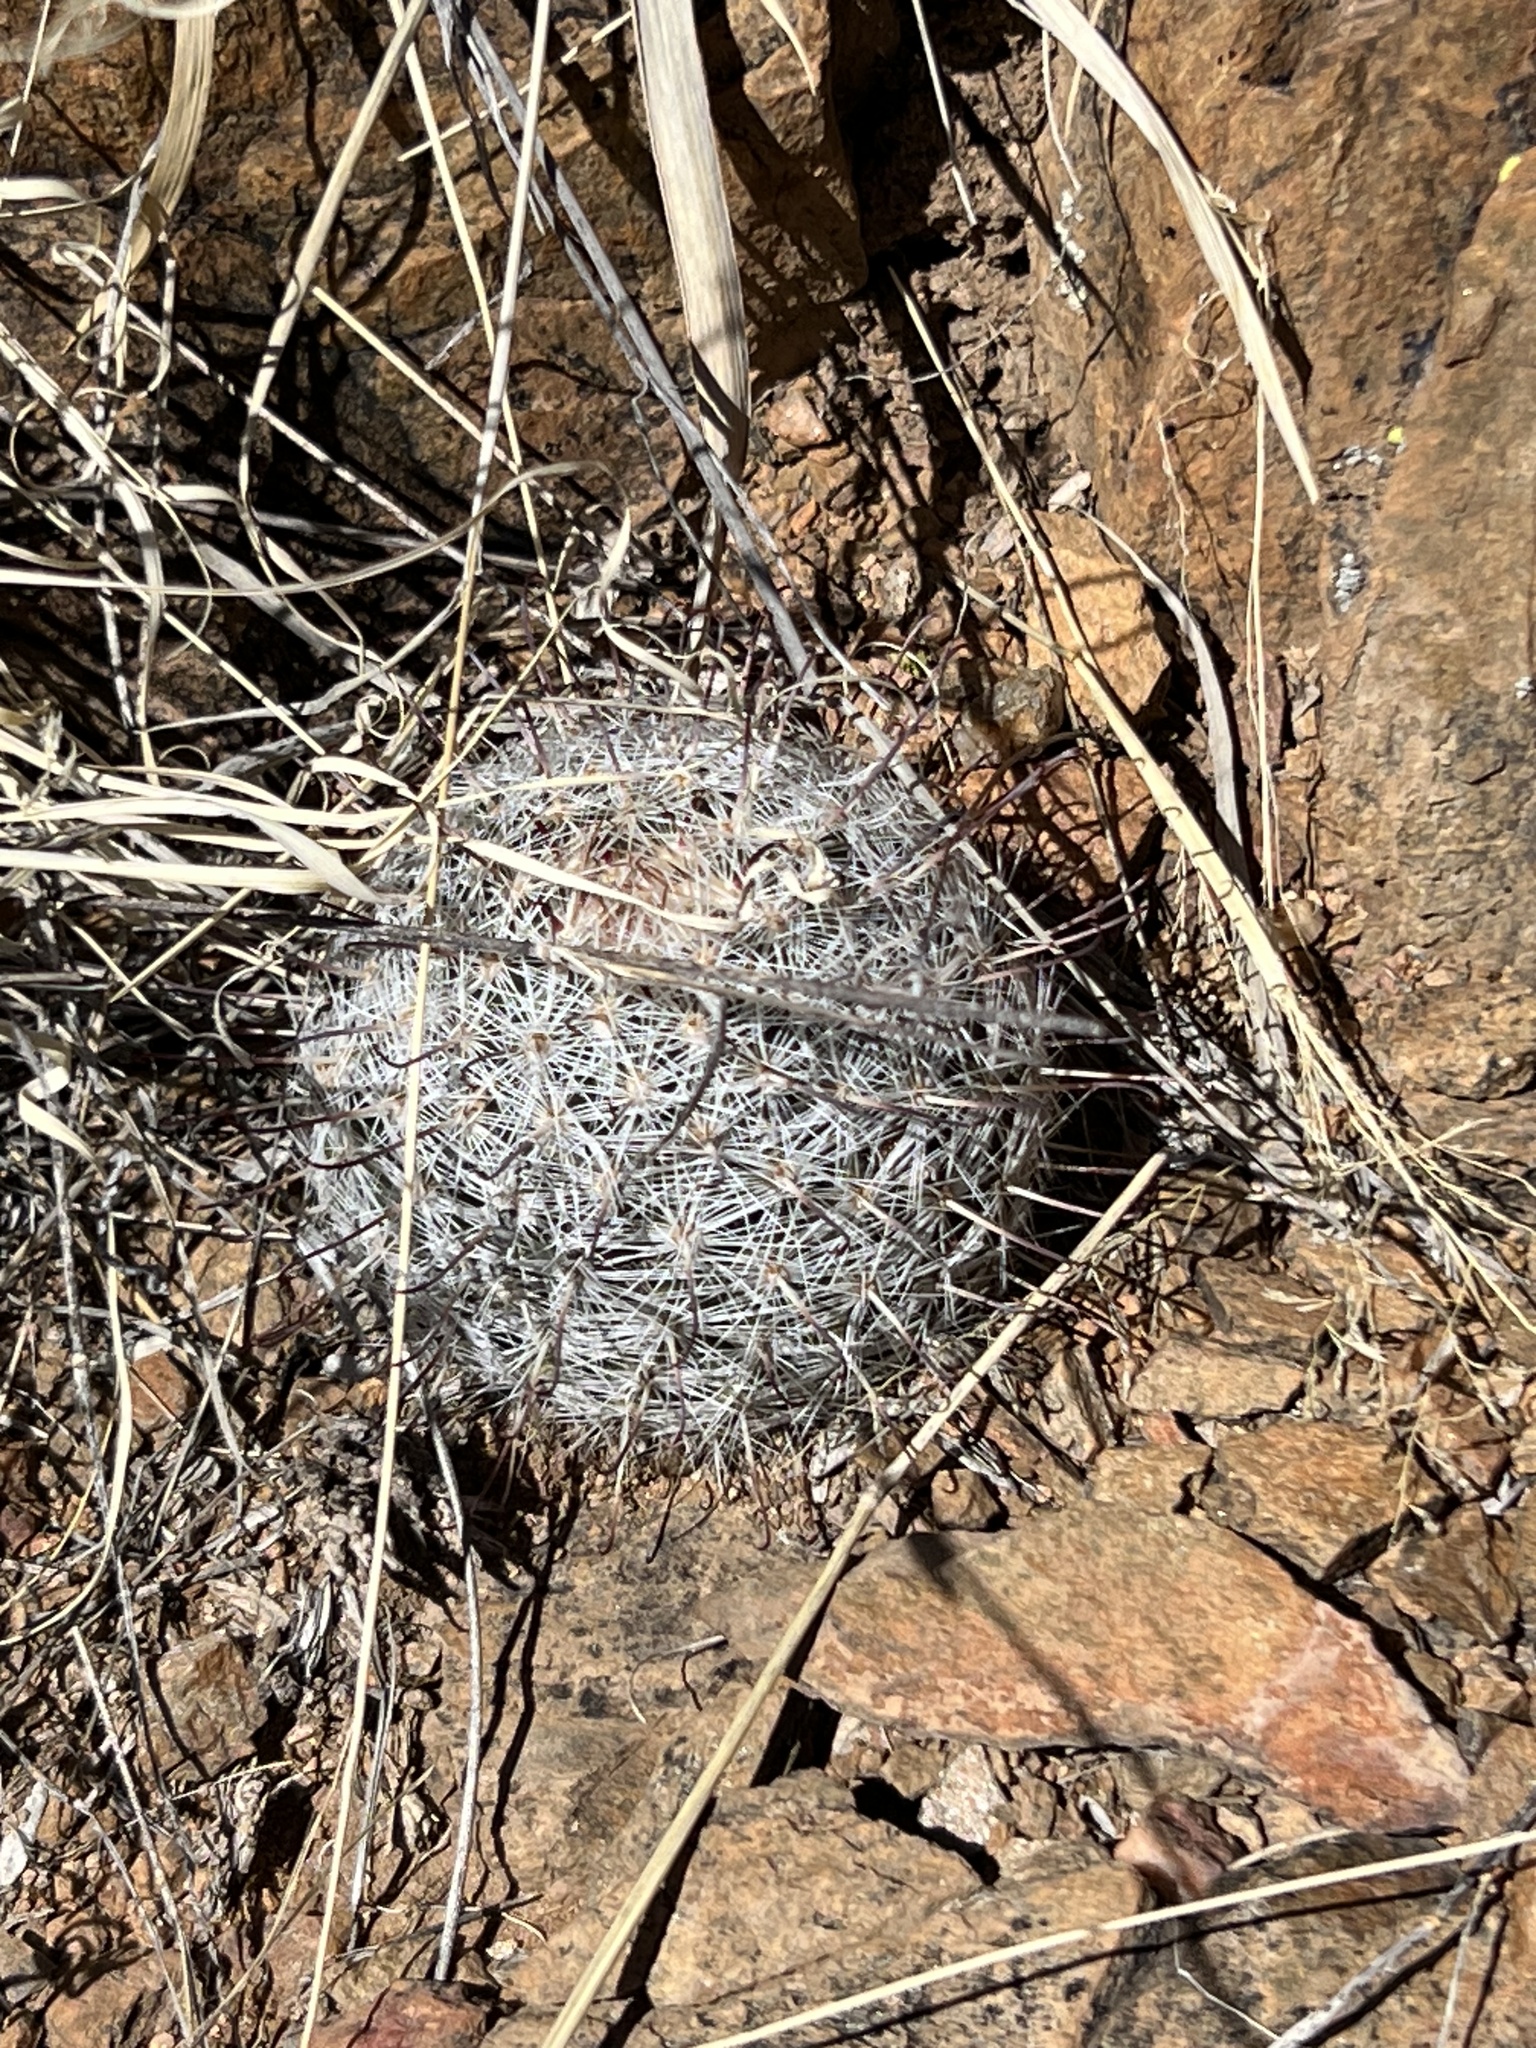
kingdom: Plantae
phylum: Tracheophyta
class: Magnoliopsida
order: Caryophyllales
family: Cactaceae
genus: Cochemiea
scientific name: Cochemiea grahamii
